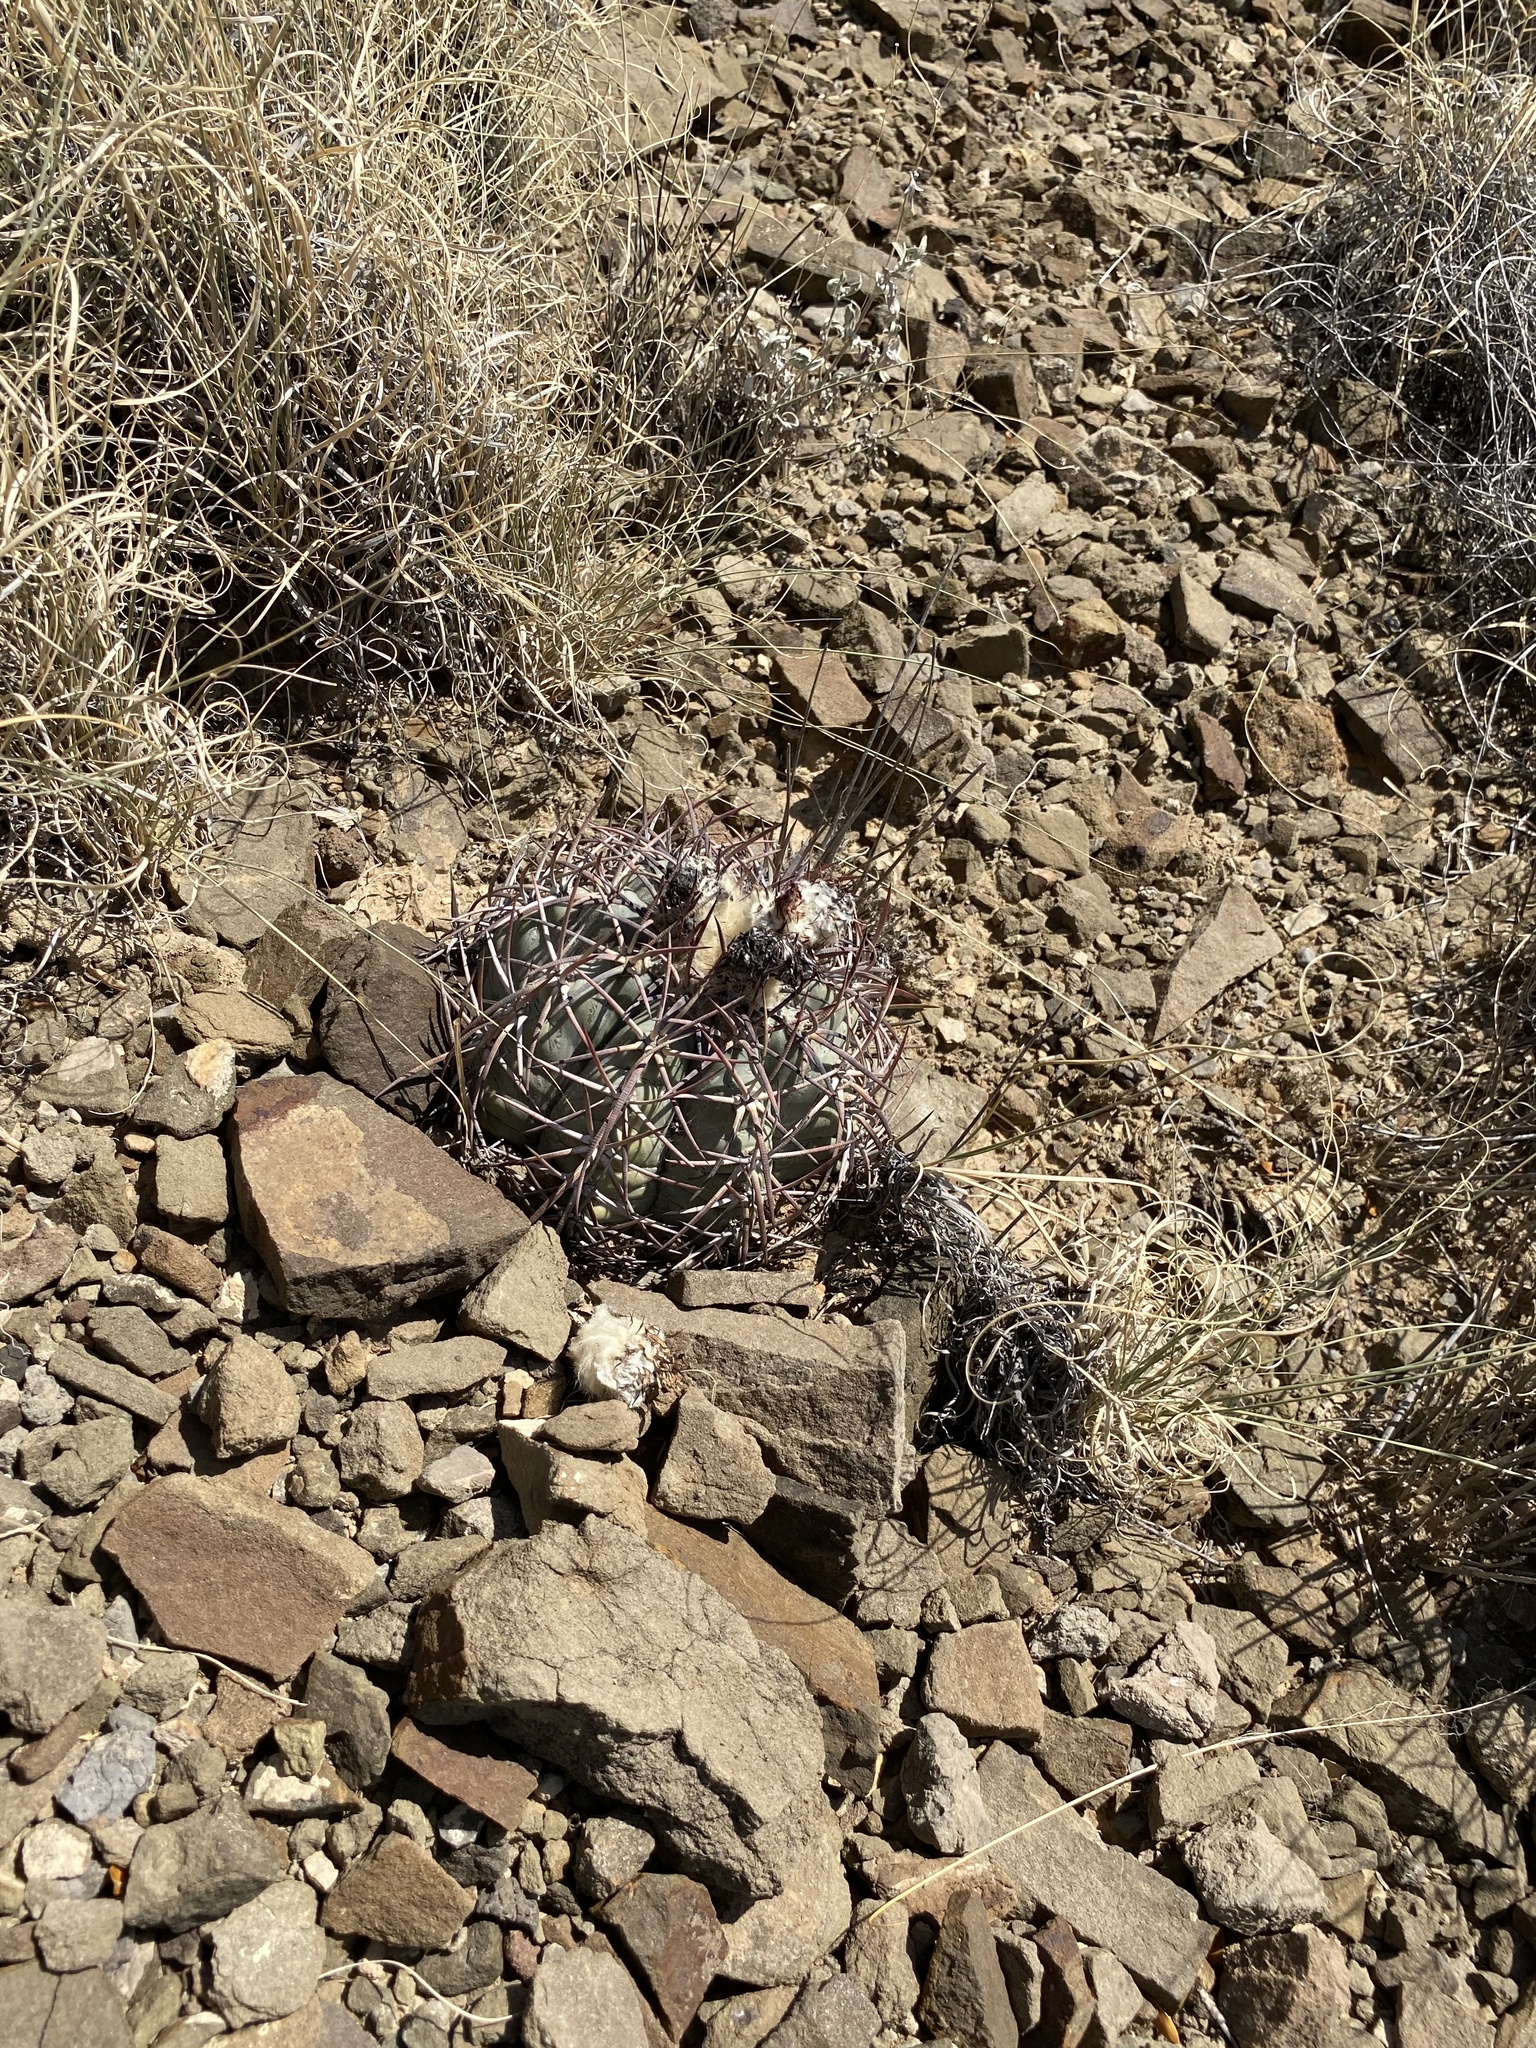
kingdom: Plantae
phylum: Tracheophyta
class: Magnoliopsida
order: Caryophyllales
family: Cactaceae
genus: Echinocactus
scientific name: Echinocactus horizonthalonius
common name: Devilshead
